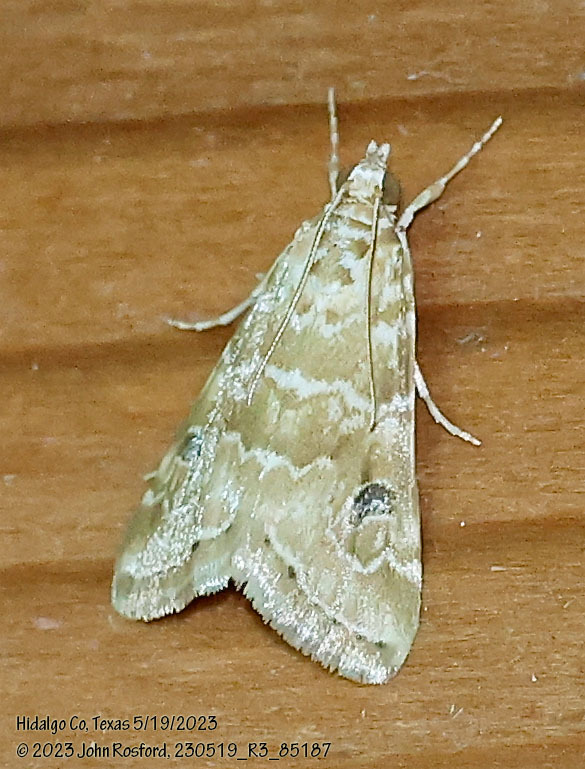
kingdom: Animalia
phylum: Arthropoda
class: Insecta
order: Lepidoptera
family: Crambidae
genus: Hellula
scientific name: Hellula phidilealis
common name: Crambid moth
